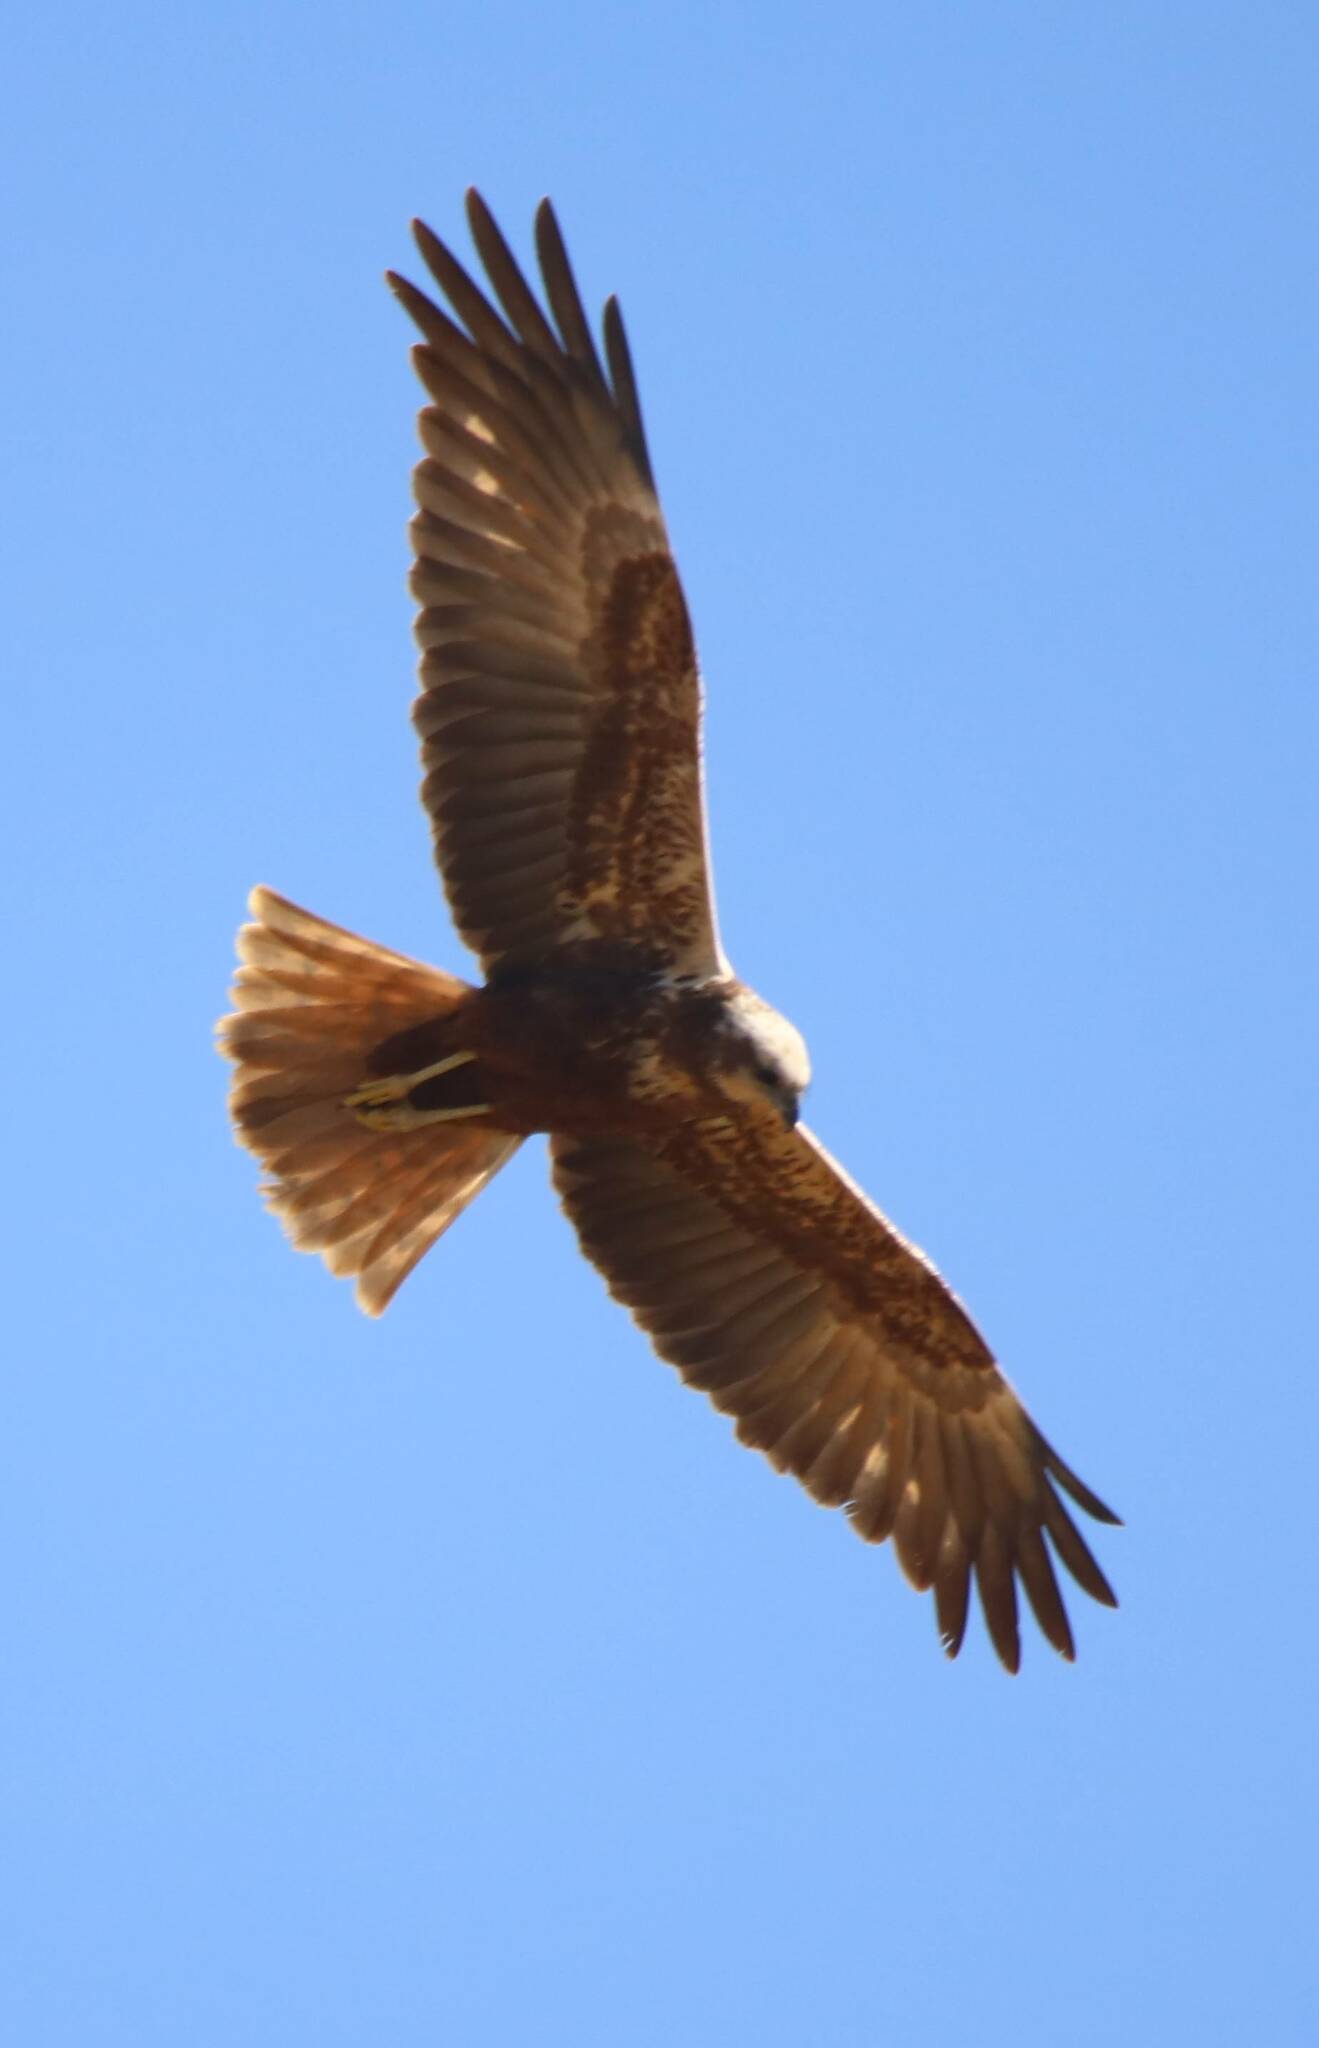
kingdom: Animalia
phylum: Chordata
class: Aves
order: Accipitriformes
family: Accipitridae
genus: Circus
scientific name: Circus aeruginosus
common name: Western marsh harrier
